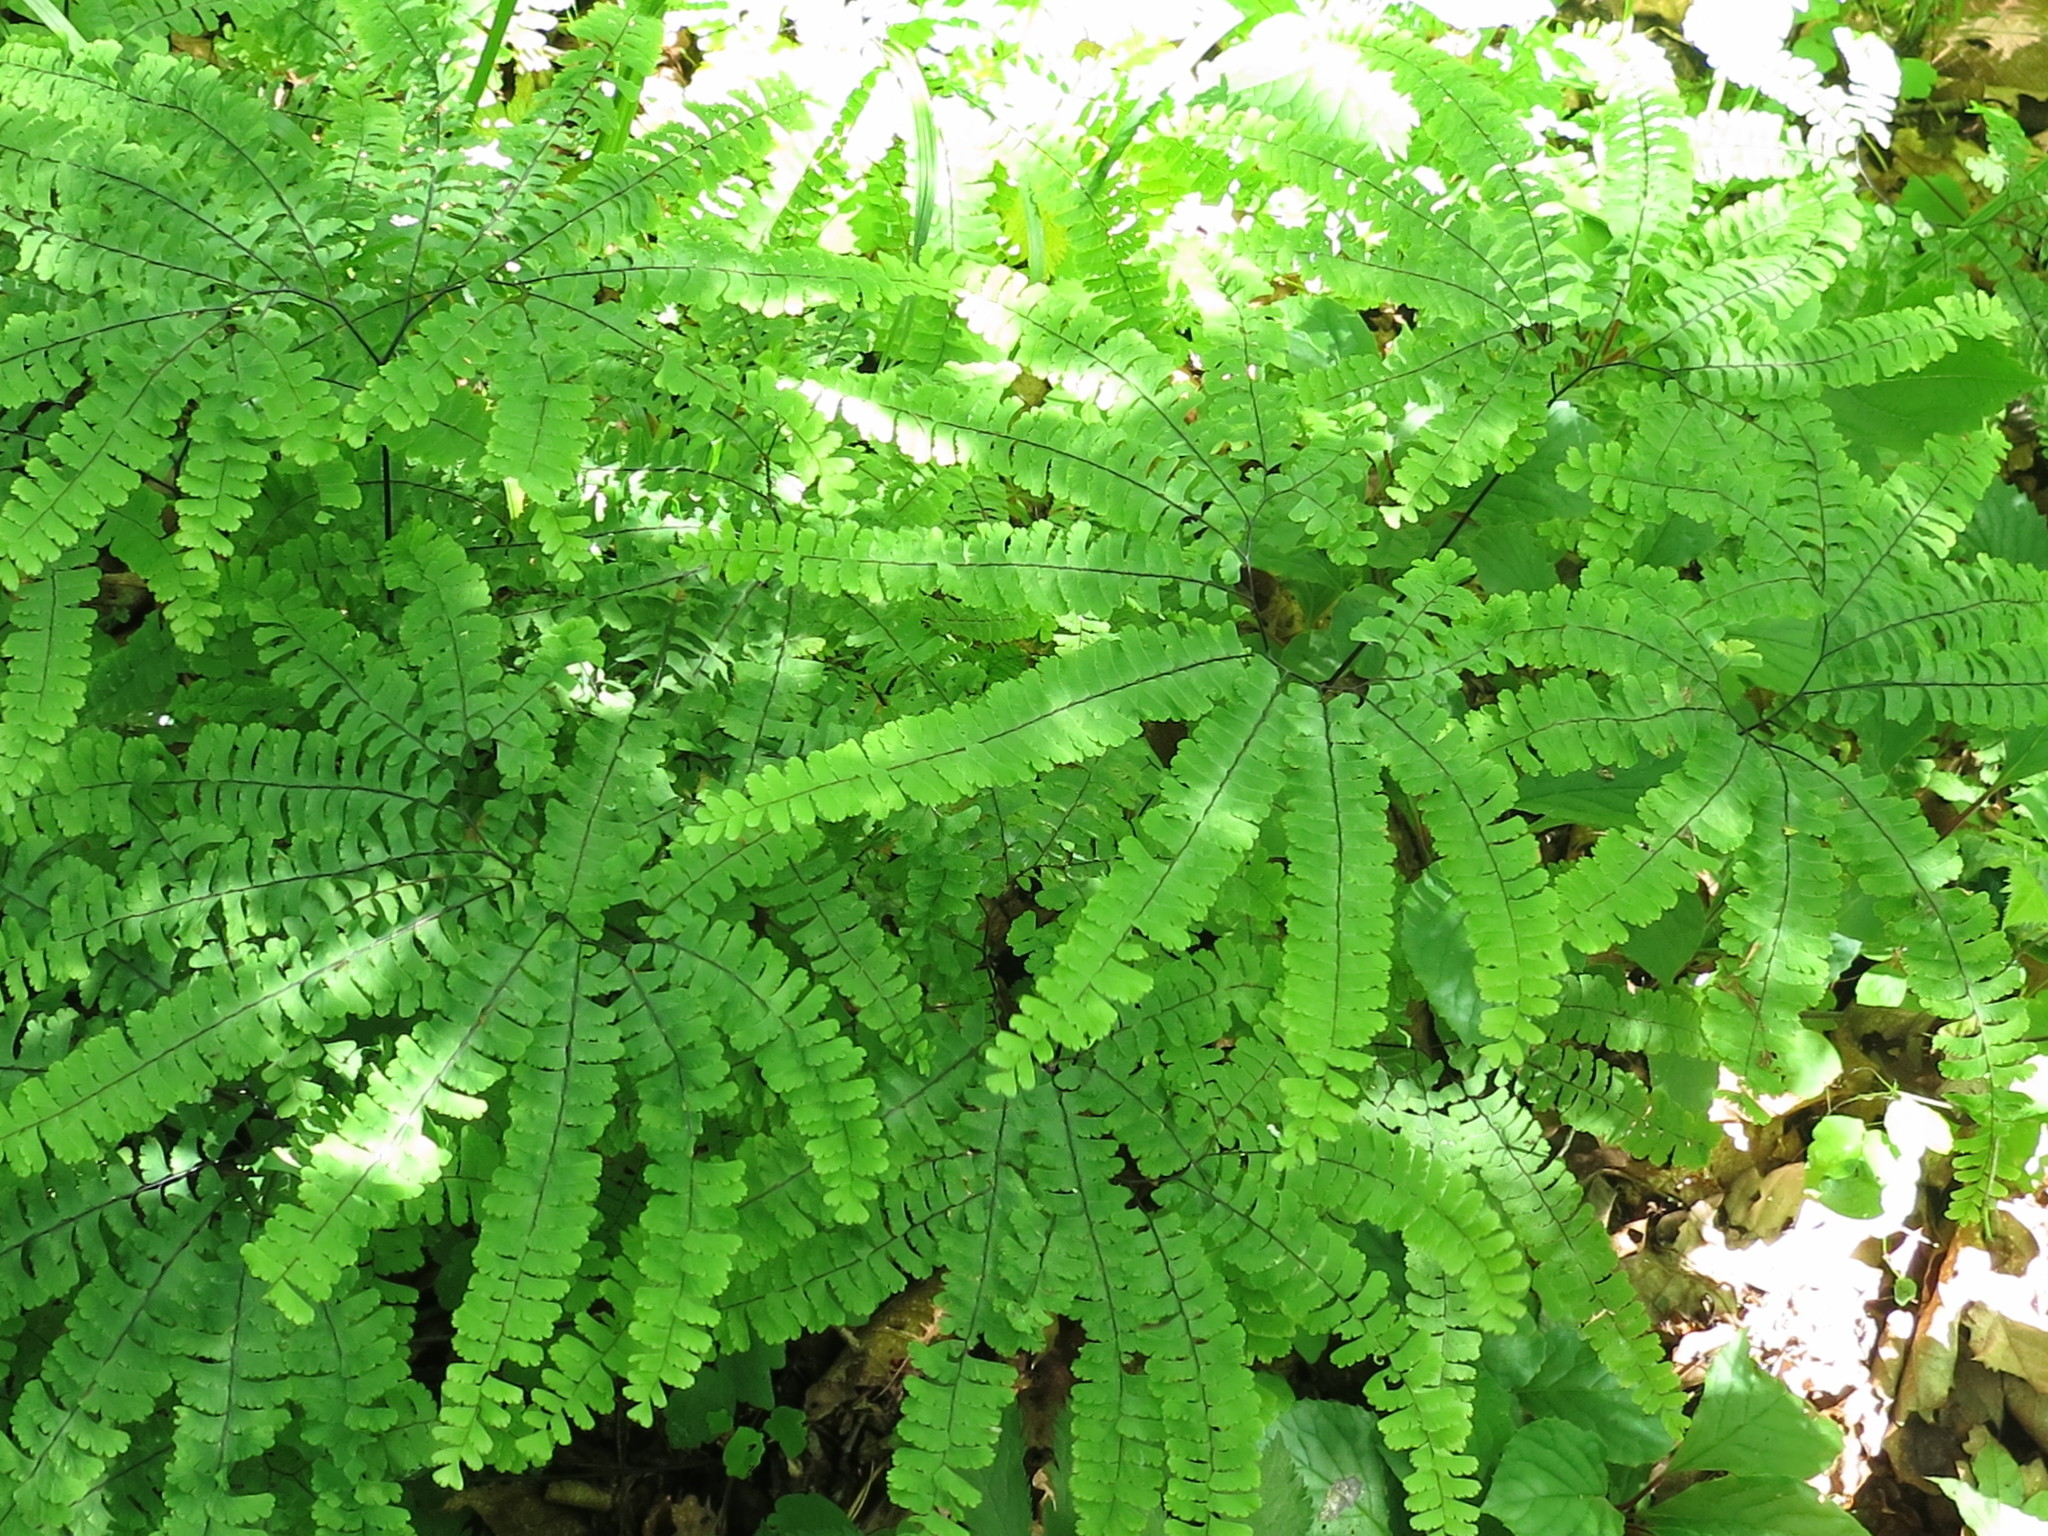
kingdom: Plantae
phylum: Tracheophyta
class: Polypodiopsida
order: Polypodiales
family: Pteridaceae
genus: Adiantum
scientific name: Adiantum pedatum
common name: Five-finger fern
